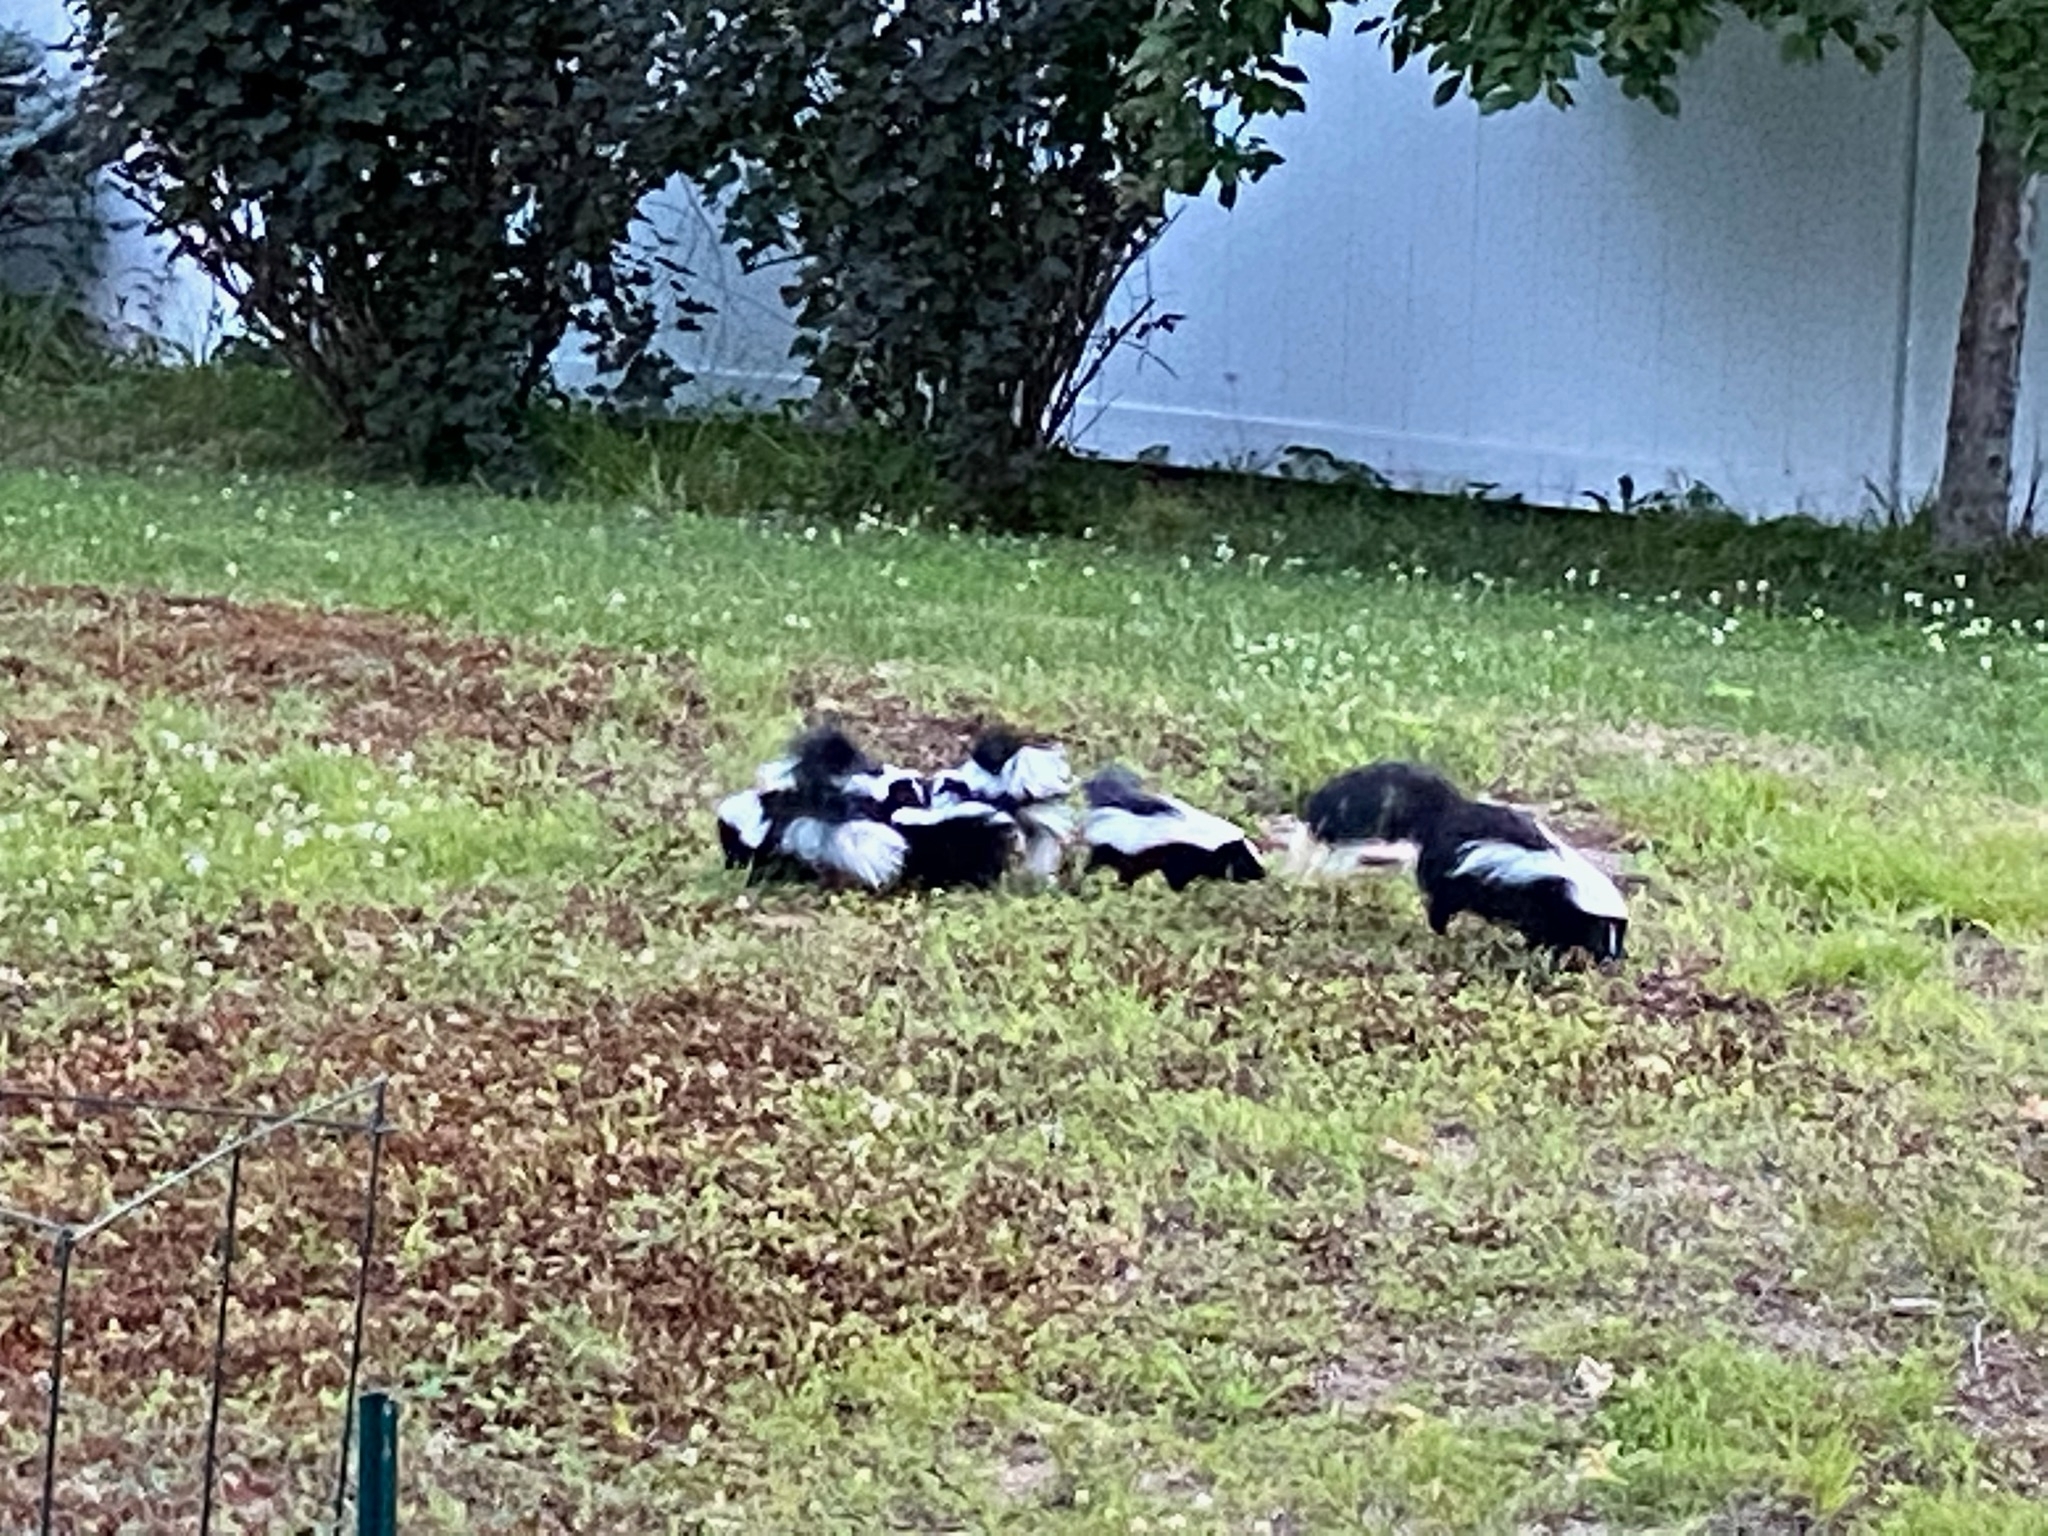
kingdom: Animalia
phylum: Chordata
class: Mammalia
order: Carnivora
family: Mephitidae
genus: Mephitis
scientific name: Mephitis mephitis
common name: Striped skunk
